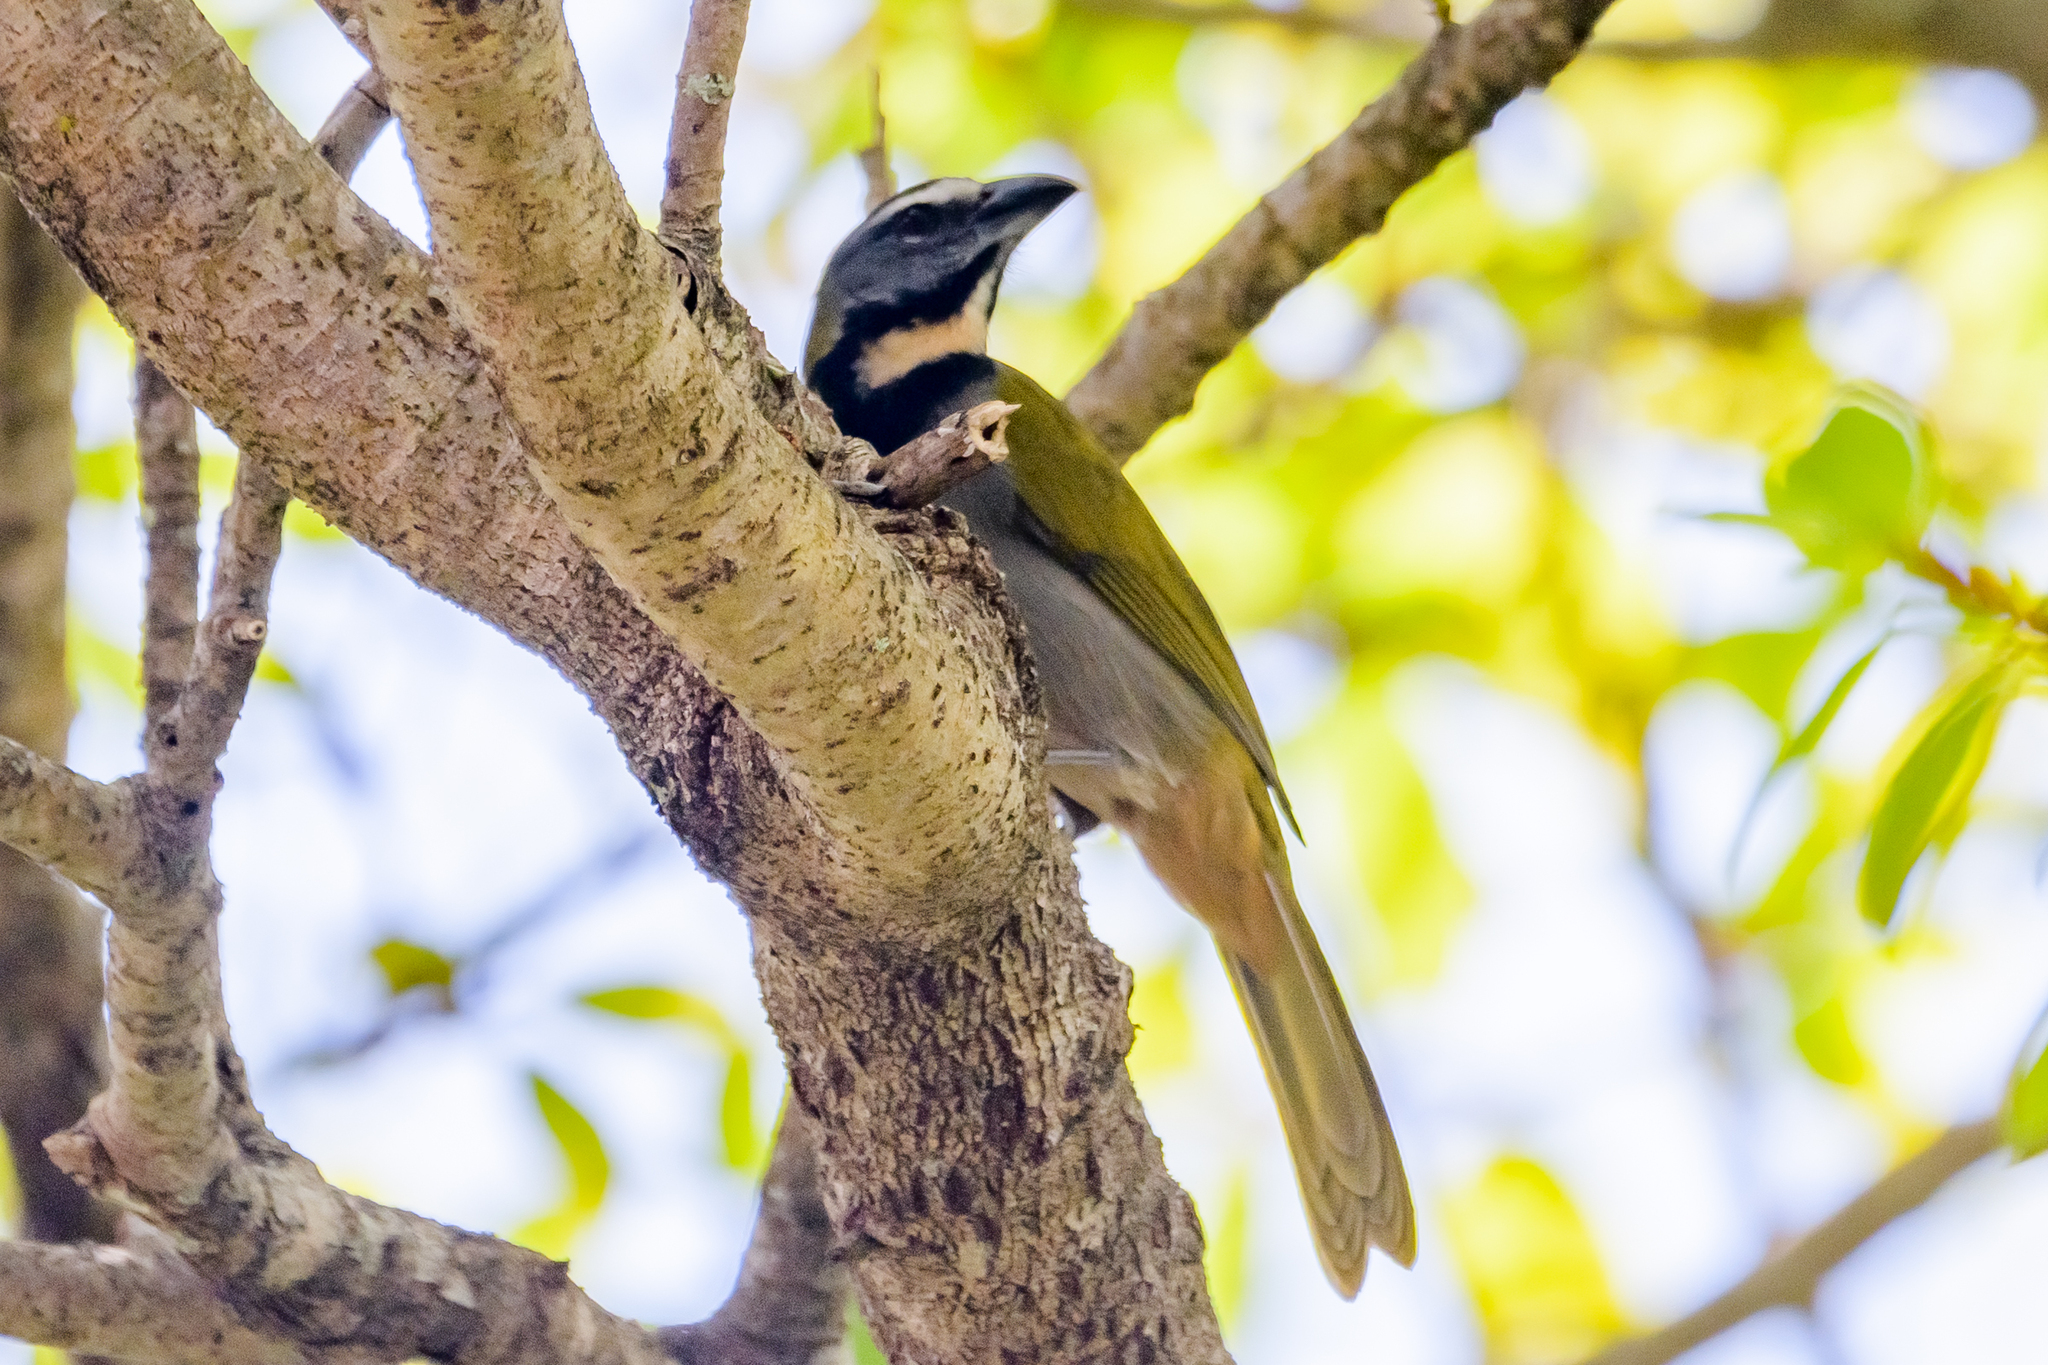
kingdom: Animalia
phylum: Chordata
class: Aves
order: Passeriformes
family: Thraupidae
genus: Saltator
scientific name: Saltator maximus
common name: Buff-throated saltator
